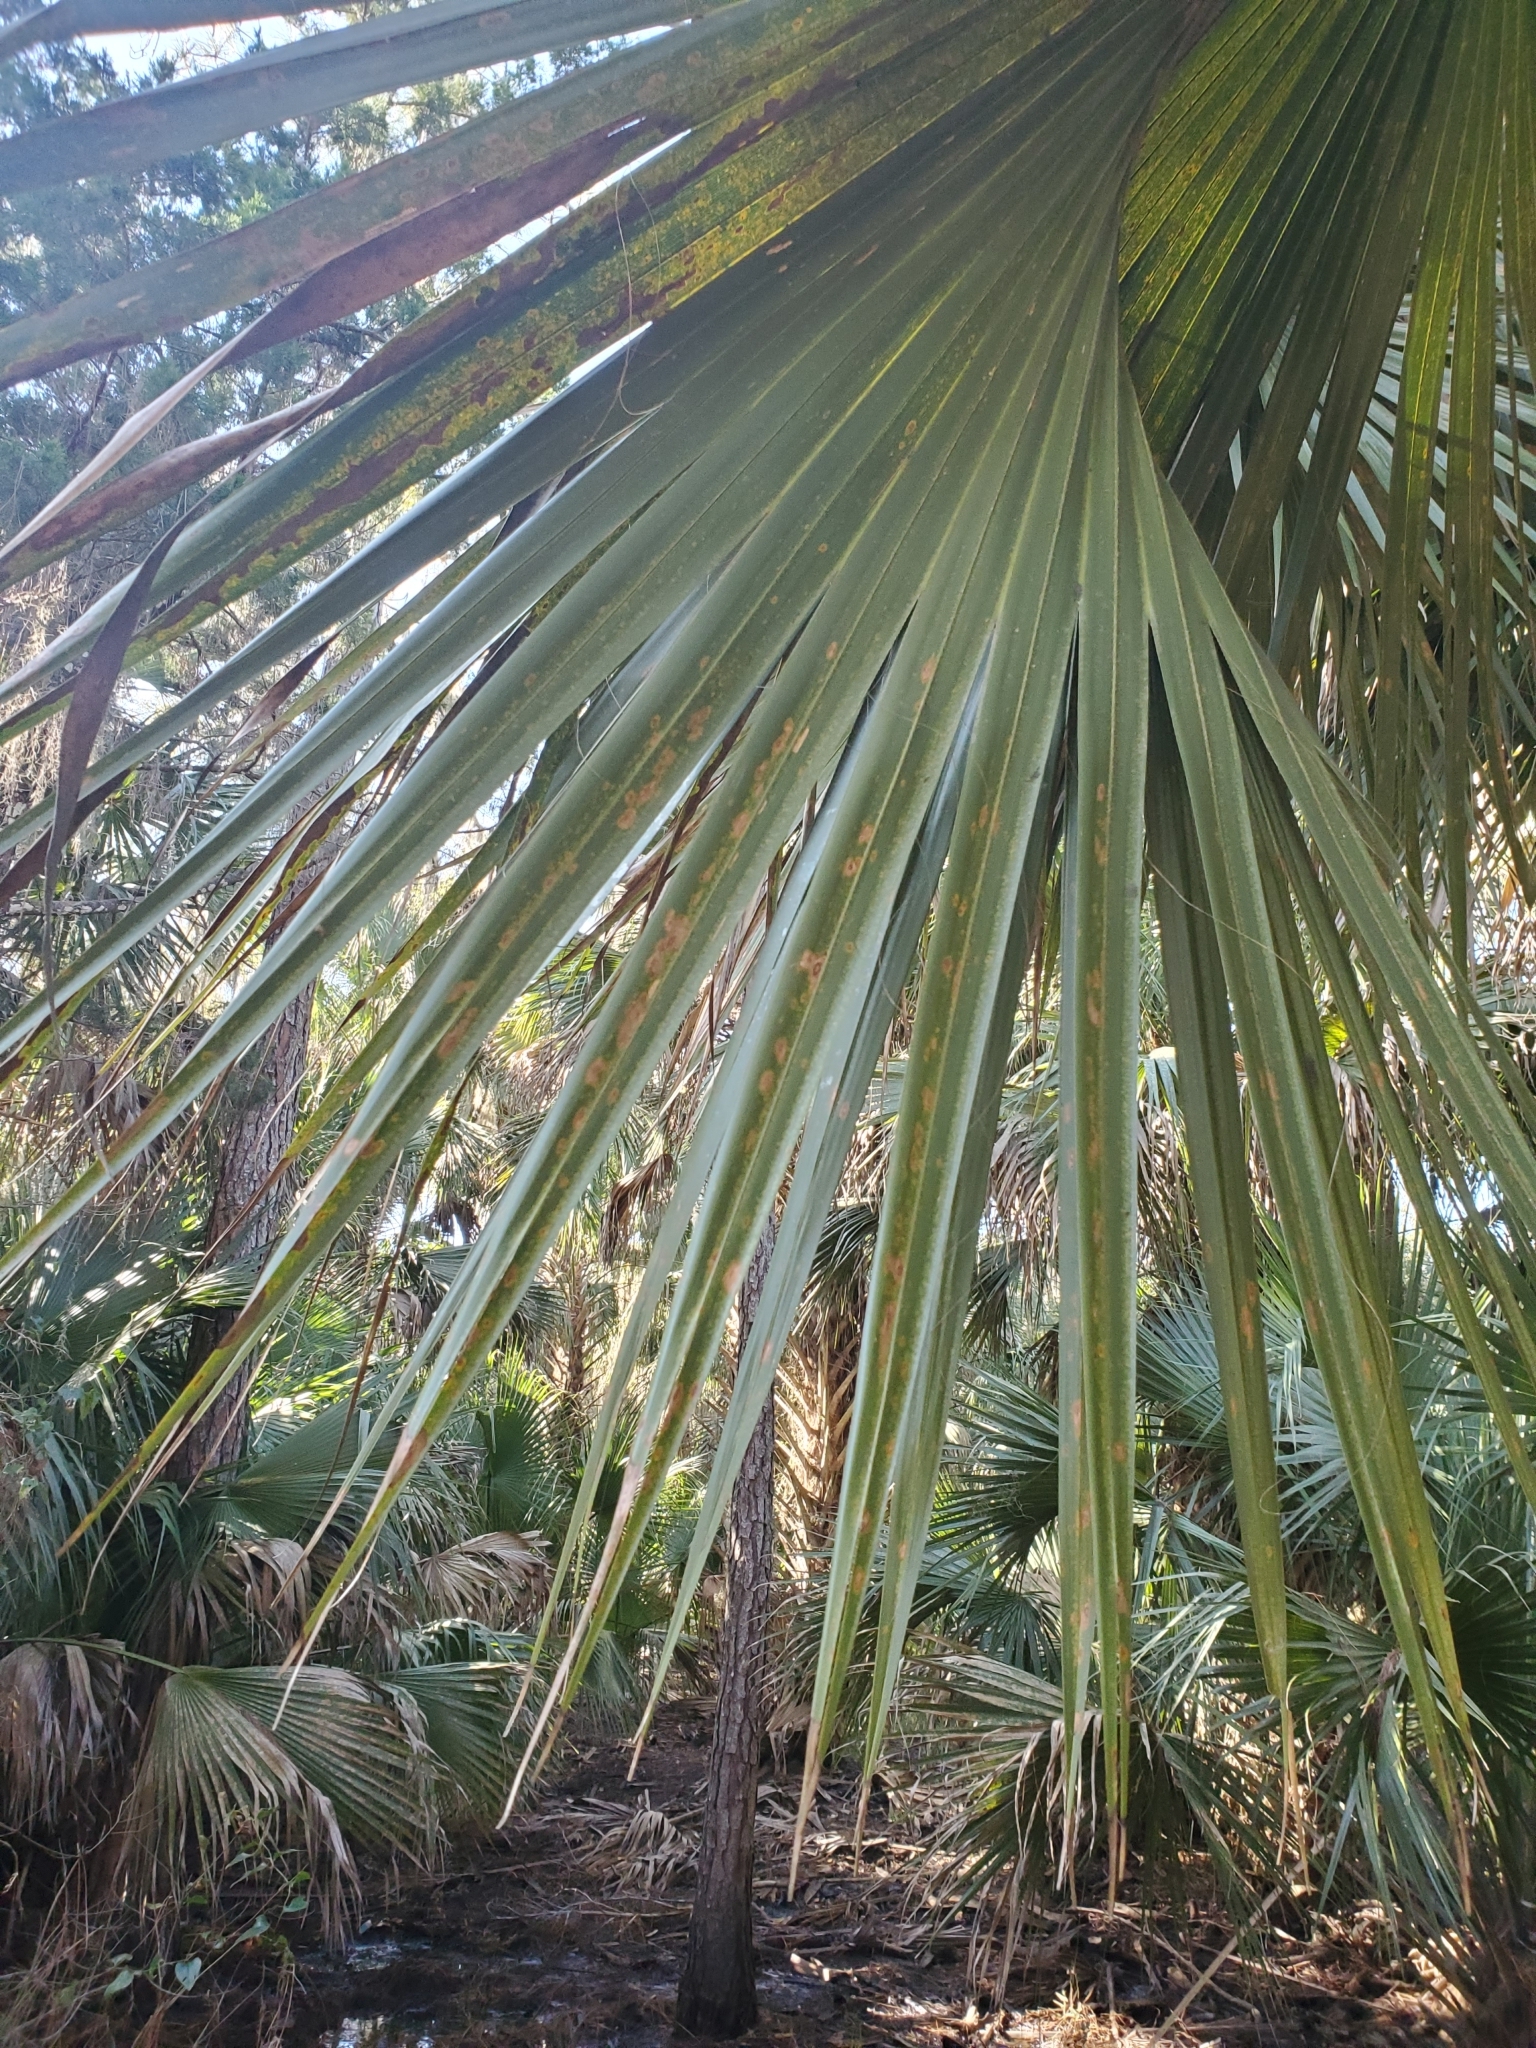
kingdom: Plantae
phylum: Tracheophyta
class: Liliopsida
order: Arecales
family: Arecaceae
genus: Sabal
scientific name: Sabal palmetto
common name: Blue palmetto
